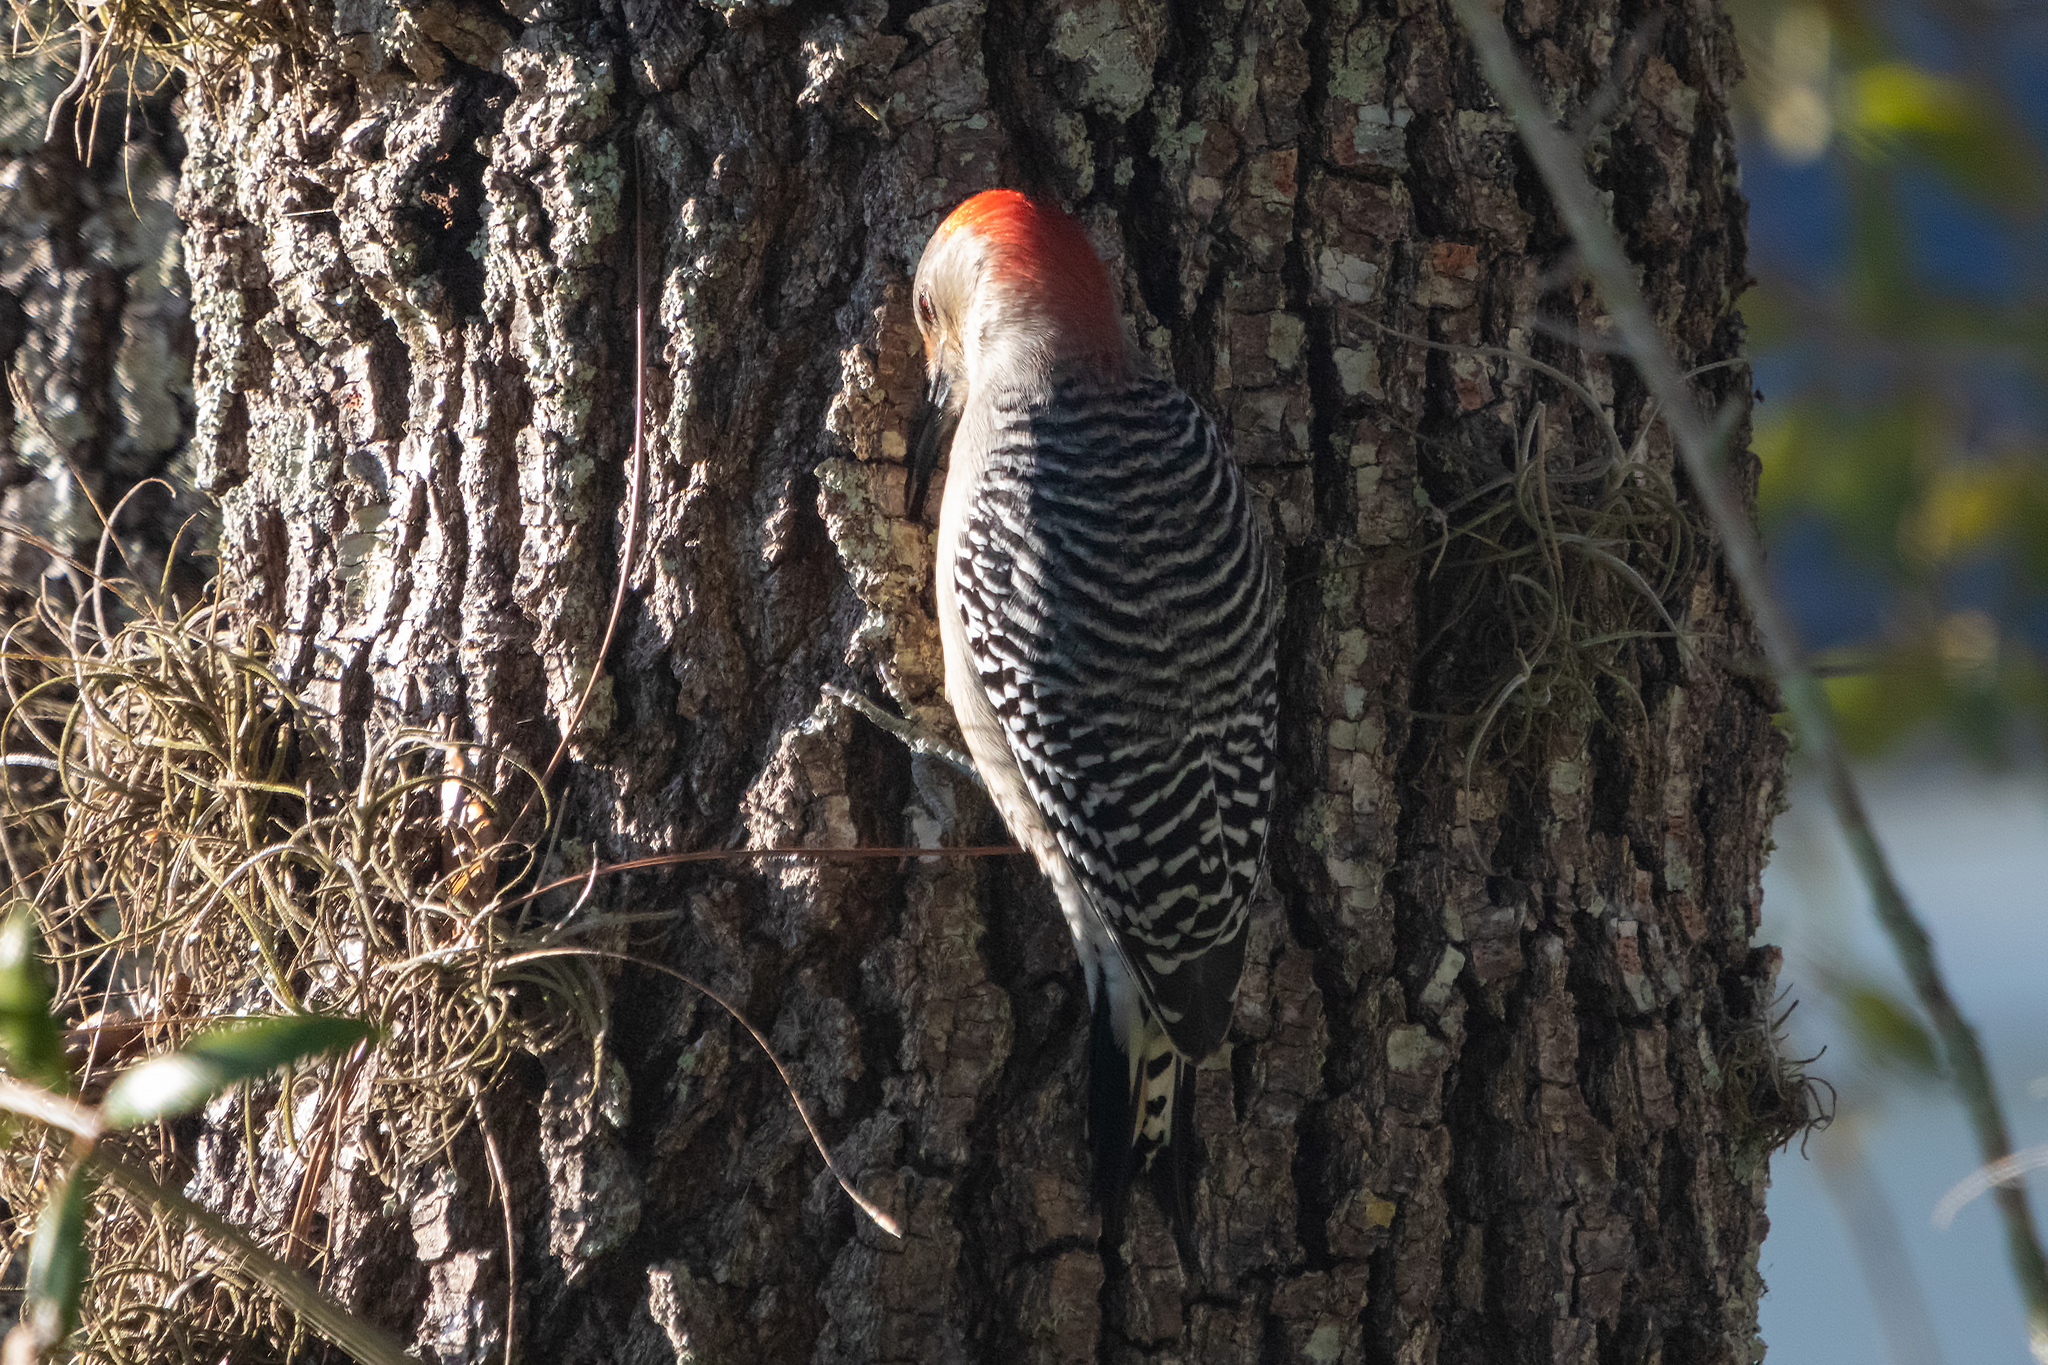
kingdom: Animalia
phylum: Chordata
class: Aves
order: Piciformes
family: Picidae
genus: Melanerpes
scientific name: Melanerpes carolinus
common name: Red-bellied woodpecker
